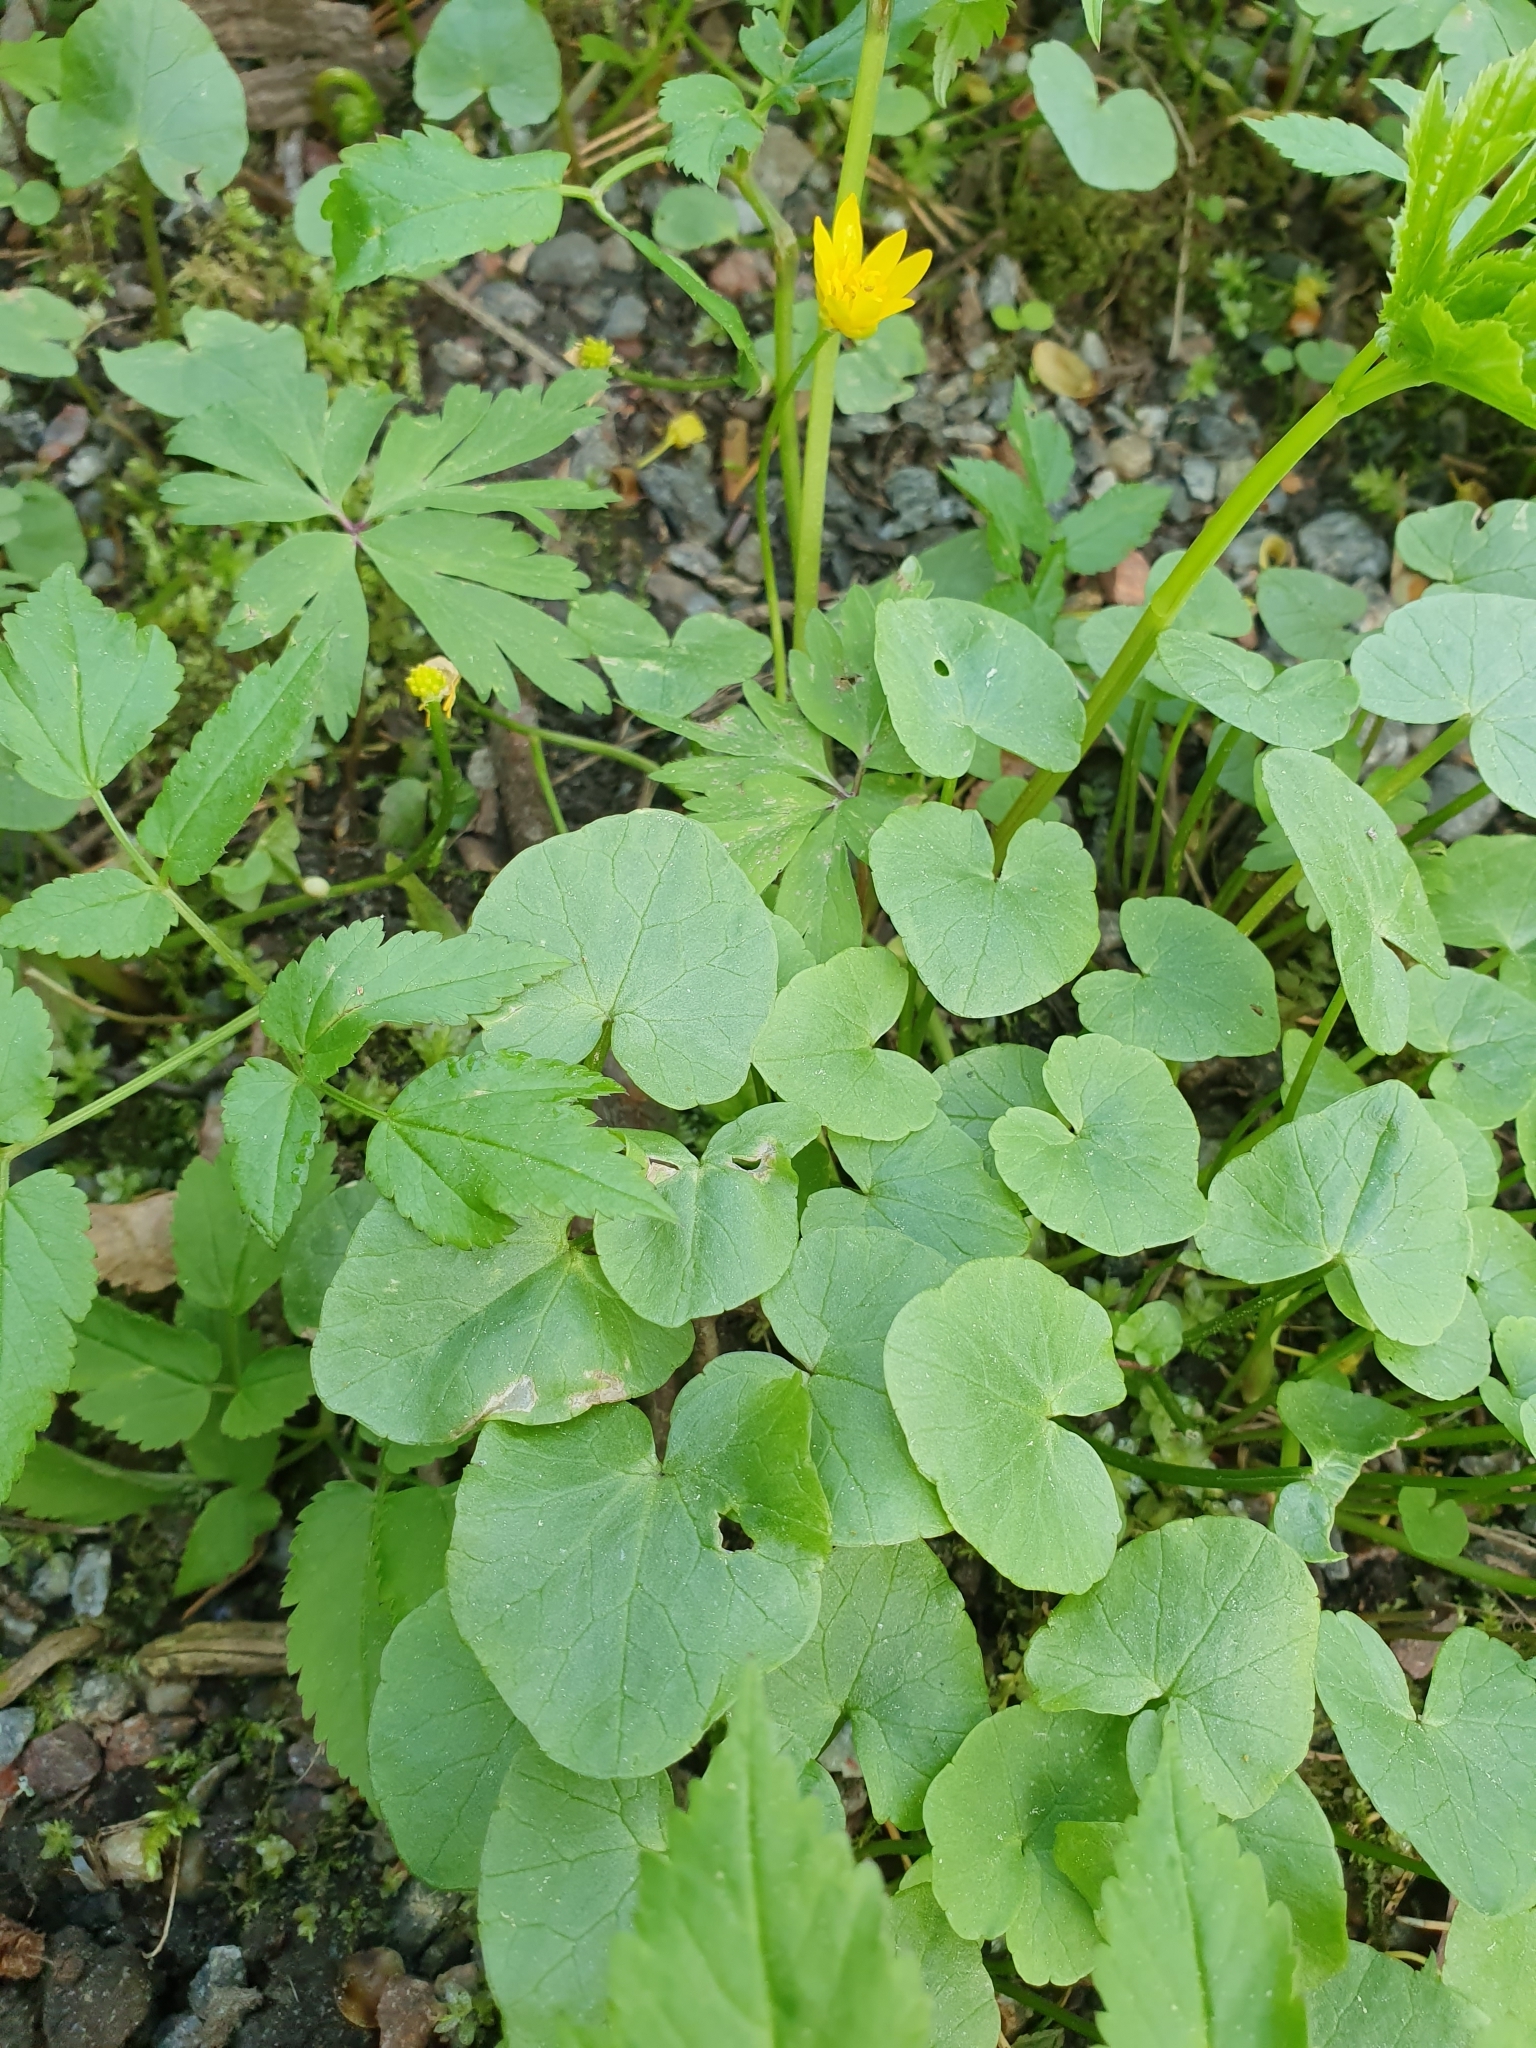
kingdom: Plantae
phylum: Tracheophyta
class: Magnoliopsida
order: Ranunculales
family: Ranunculaceae
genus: Ficaria
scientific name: Ficaria verna
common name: Lesser celandine
